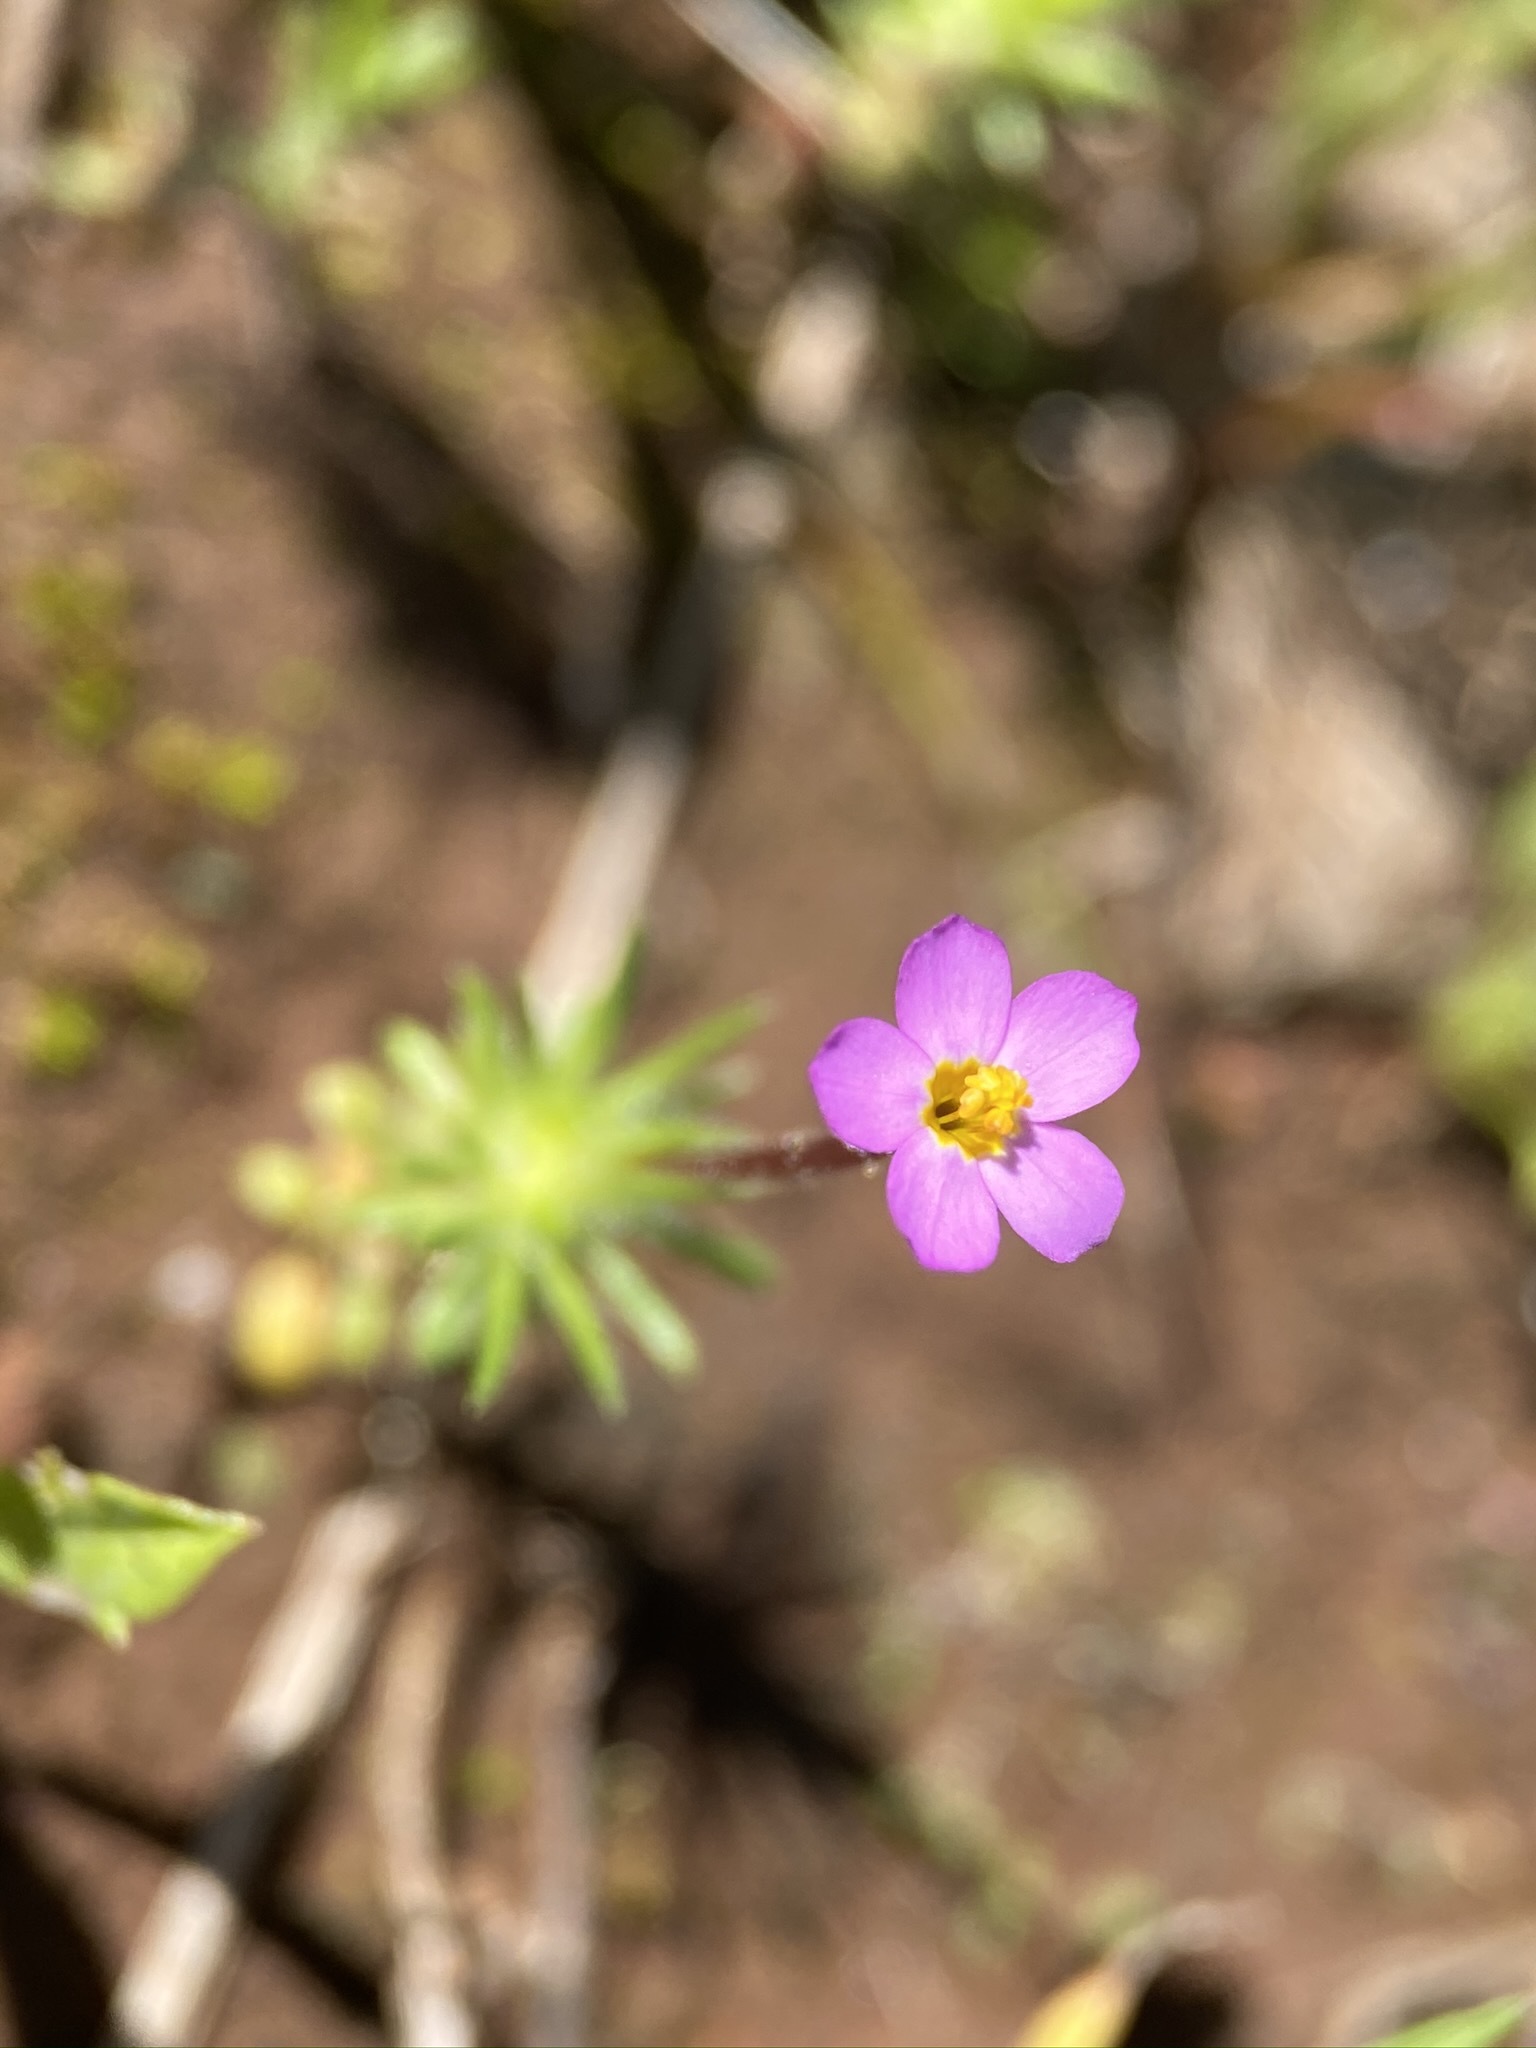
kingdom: Plantae
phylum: Tracheophyta
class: Magnoliopsida
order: Ericales
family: Polemoniaceae
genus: Leptosiphon
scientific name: Leptosiphon bicolor
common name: True babystars
